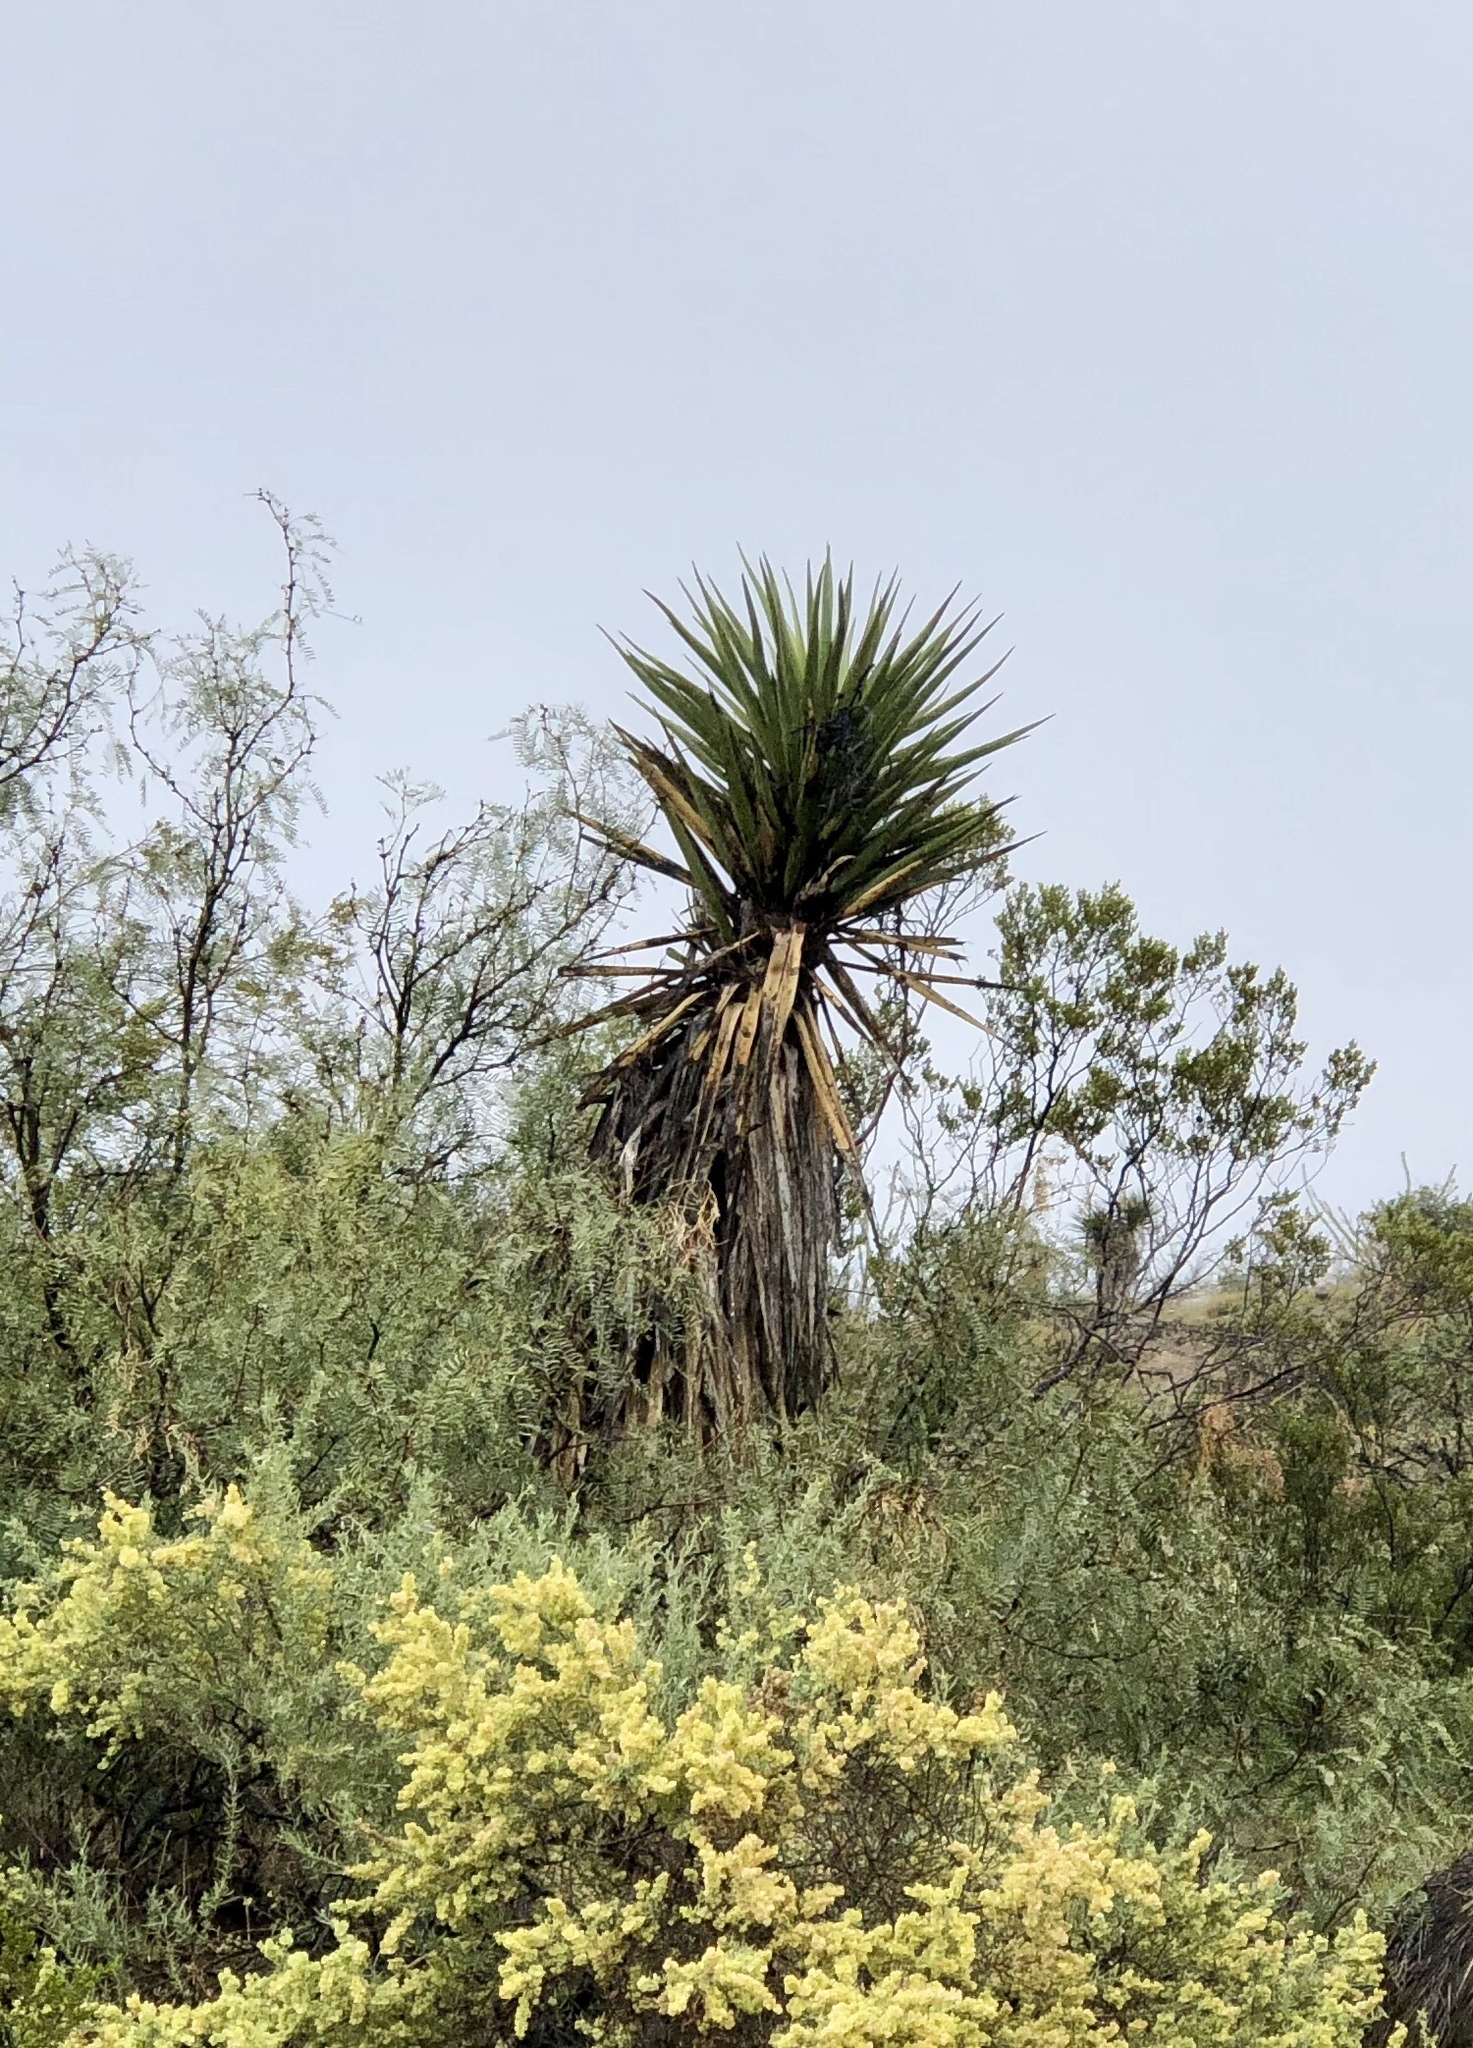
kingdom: Plantae
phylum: Tracheophyta
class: Liliopsida
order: Asparagales
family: Asparagaceae
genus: Yucca
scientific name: Yucca treculiana
